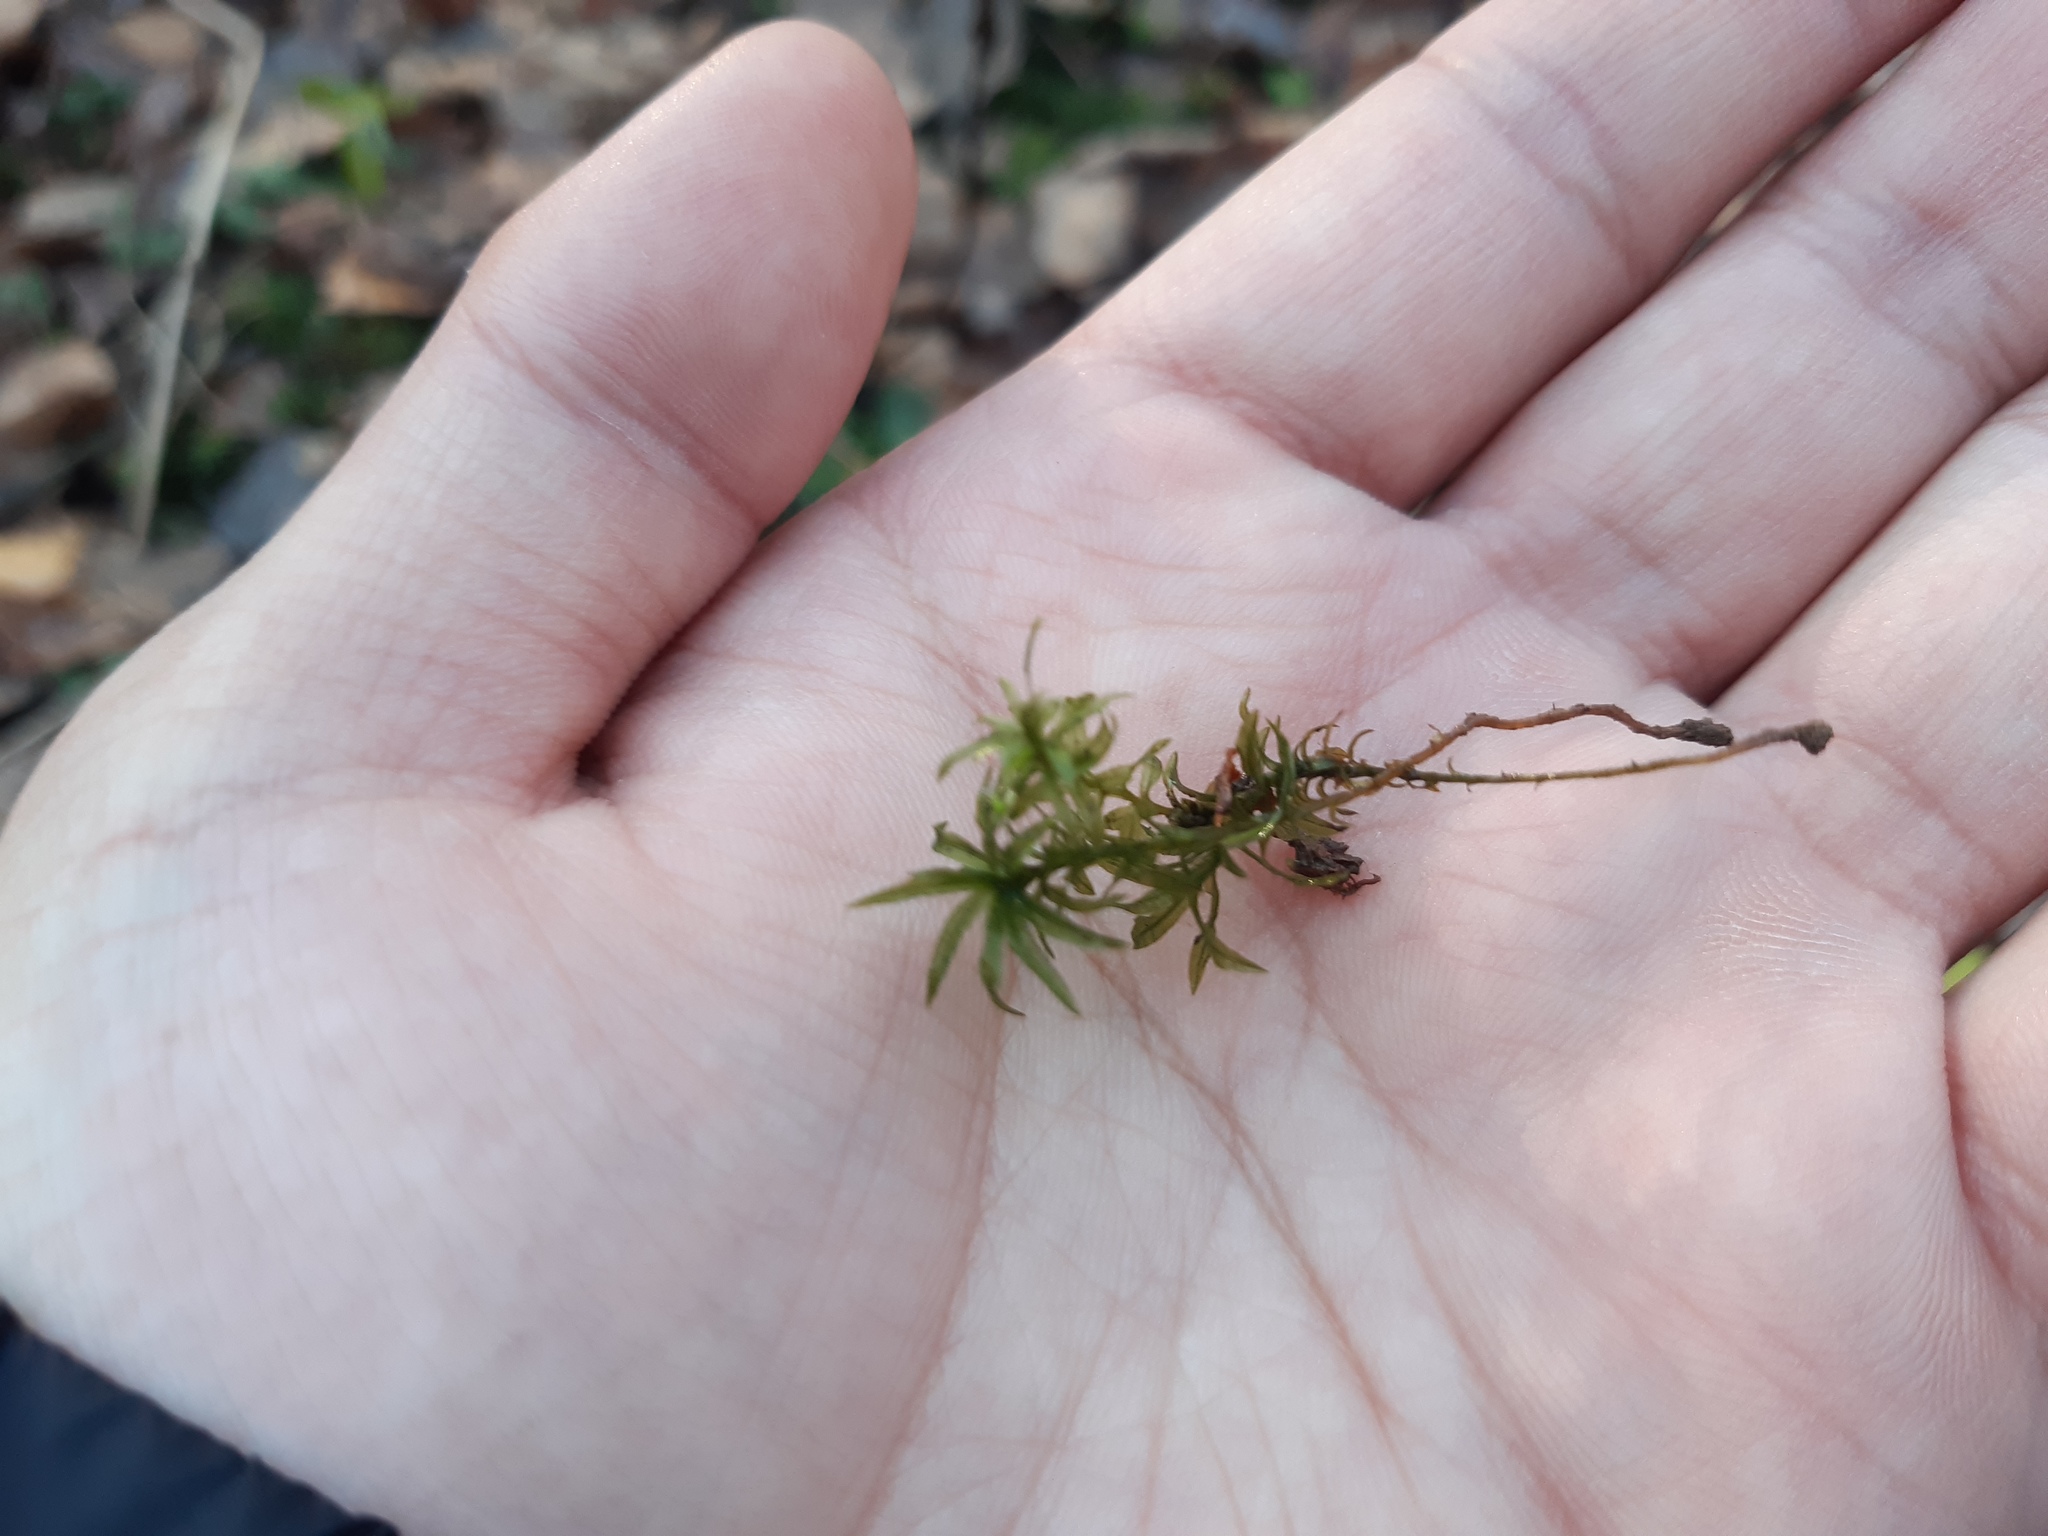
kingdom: Plantae
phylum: Bryophyta
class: Polytrichopsida
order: Polytrichales
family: Polytrichaceae
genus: Atrichum
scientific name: Atrichum undulatum
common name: Common smoothcap
